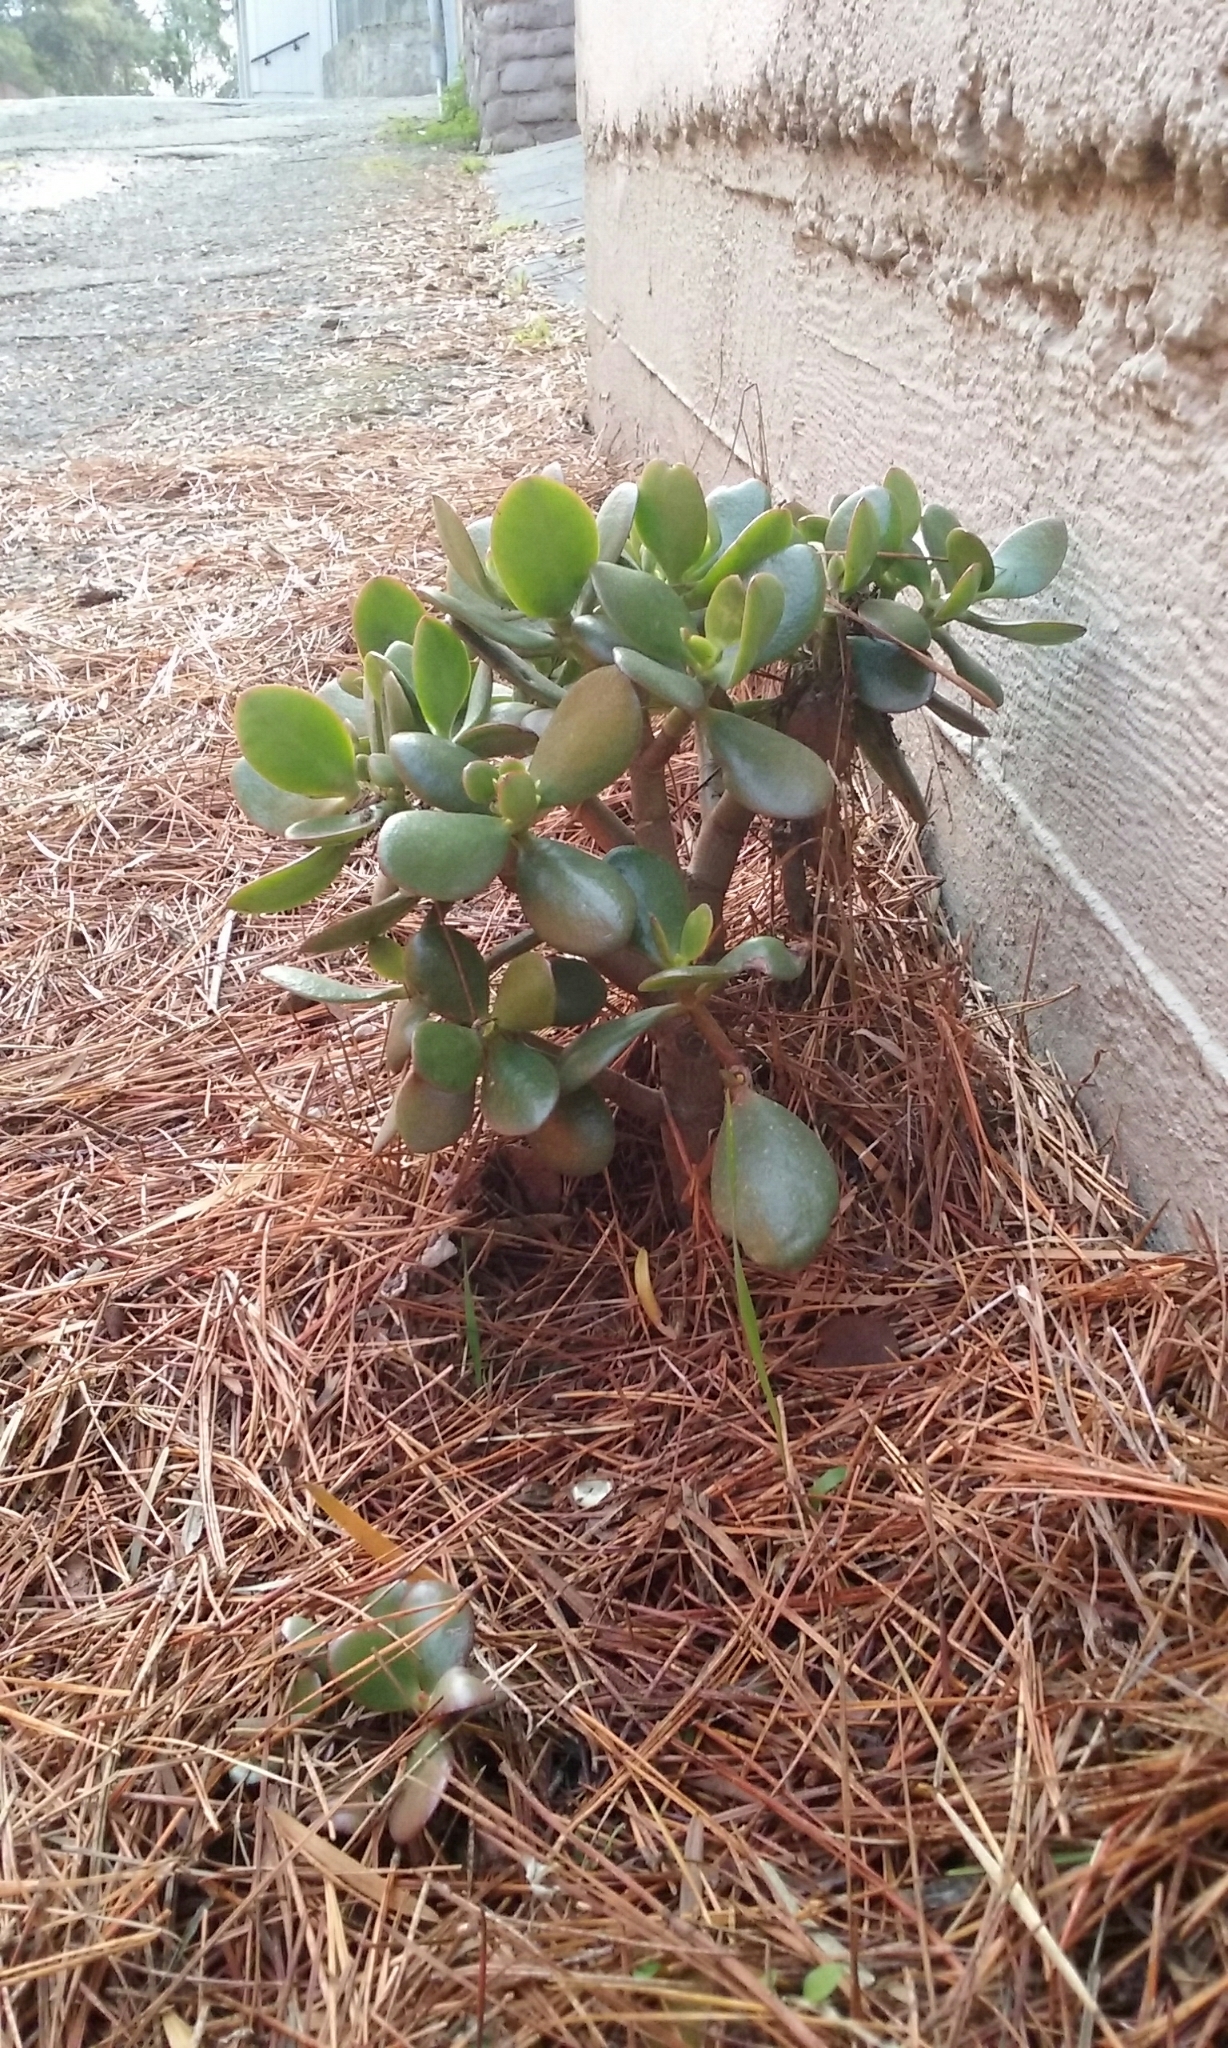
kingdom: Plantae
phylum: Tracheophyta
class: Magnoliopsida
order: Saxifragales
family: Crassulaceae
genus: Crassula
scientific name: Crassula ovata
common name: Jade plant
